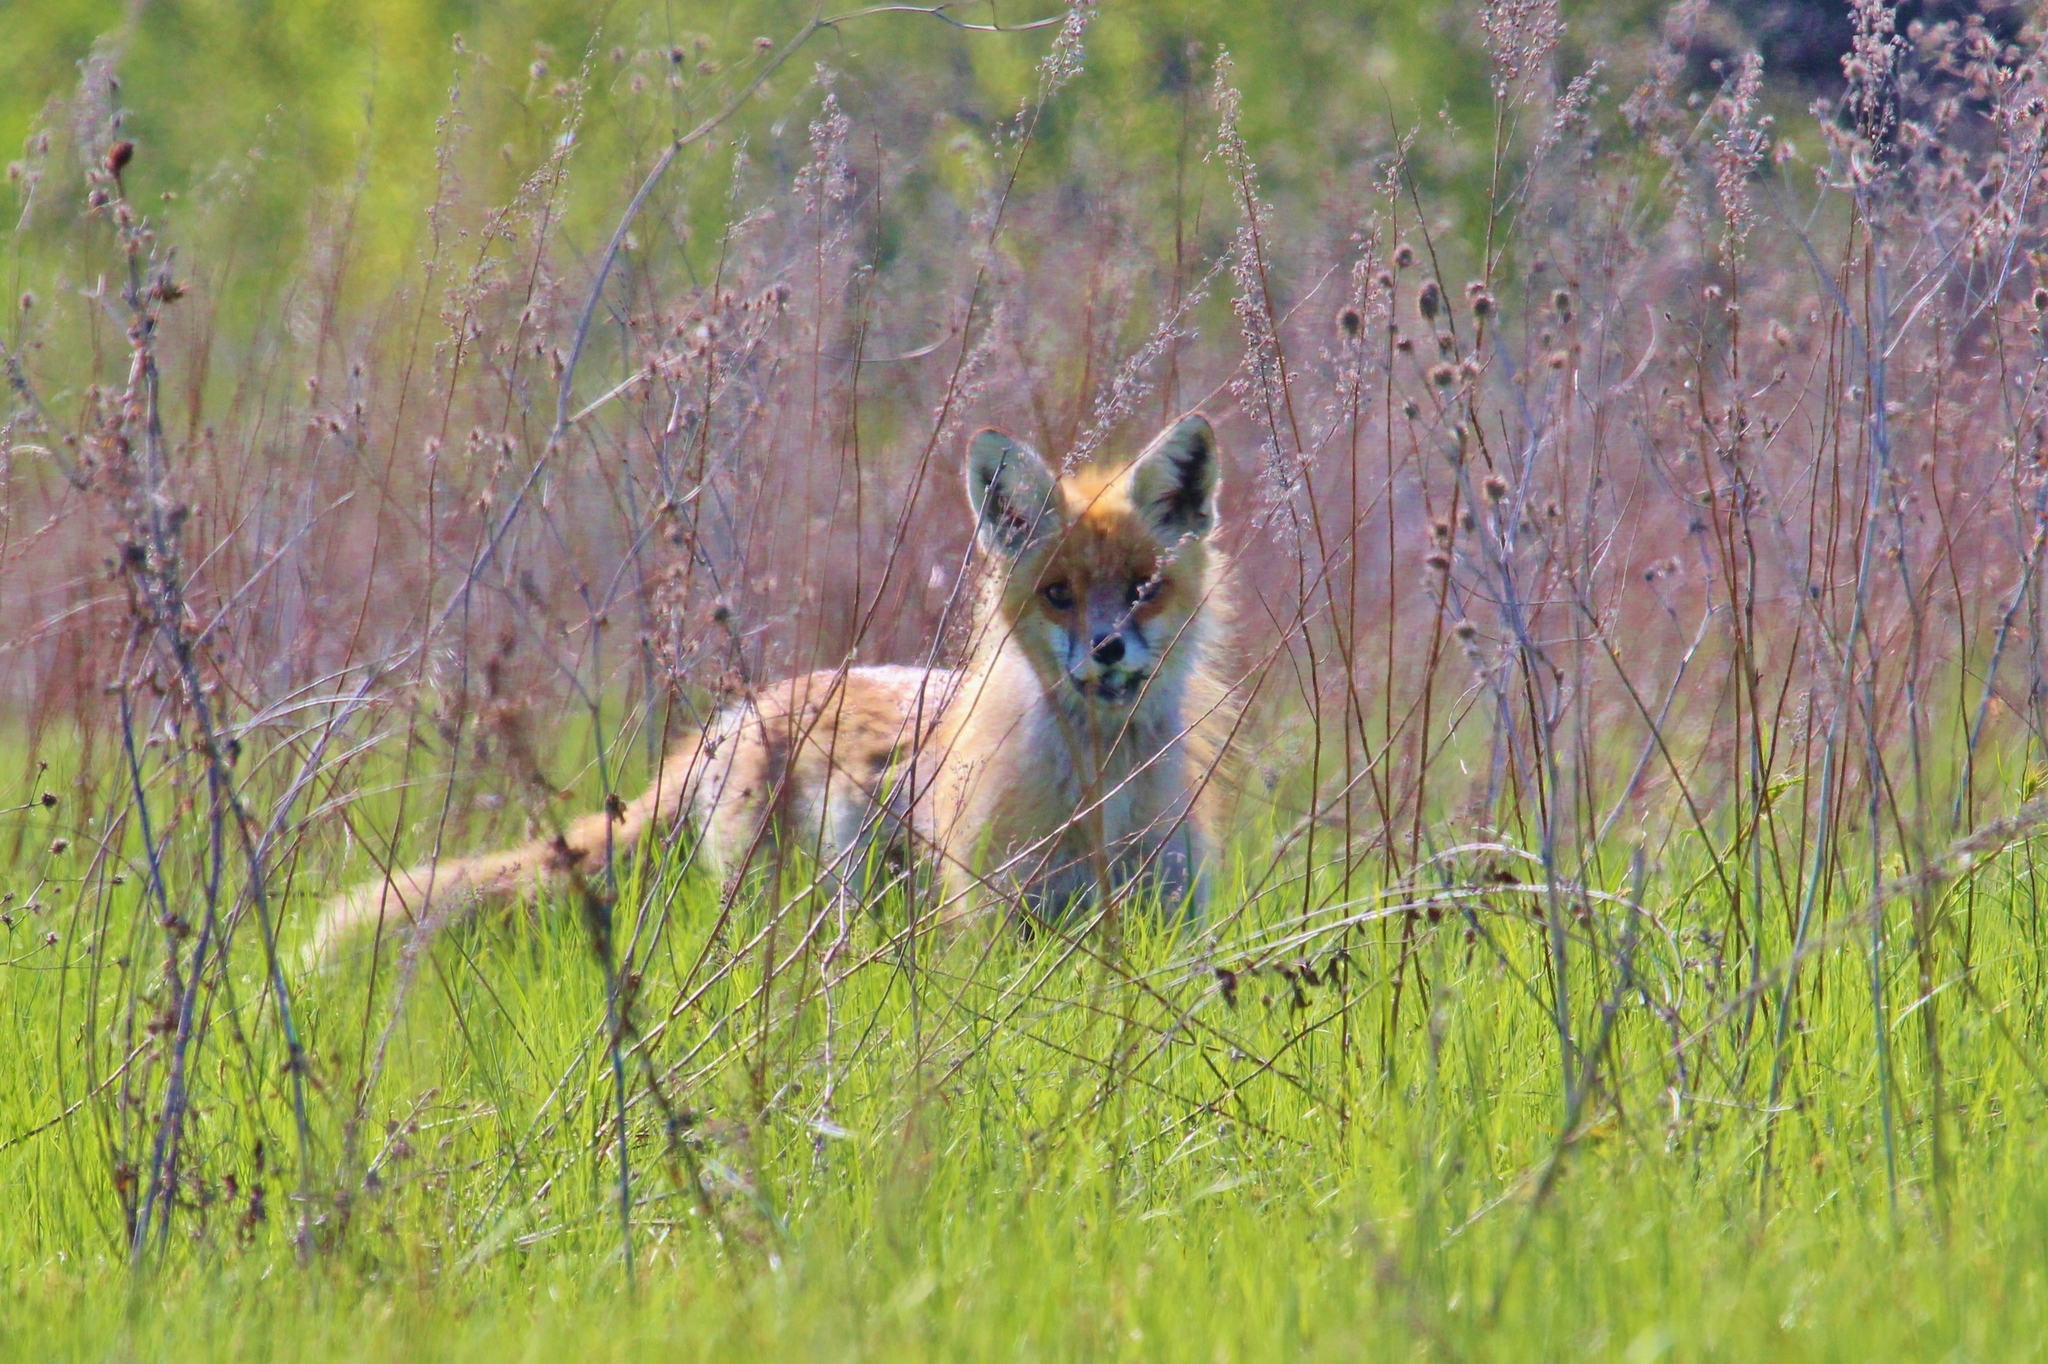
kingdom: Animalia
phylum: Chordata
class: Mammalia
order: Carnivora
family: Canidae
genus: Vulpes
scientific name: Vulpes vulpes
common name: Red fox
